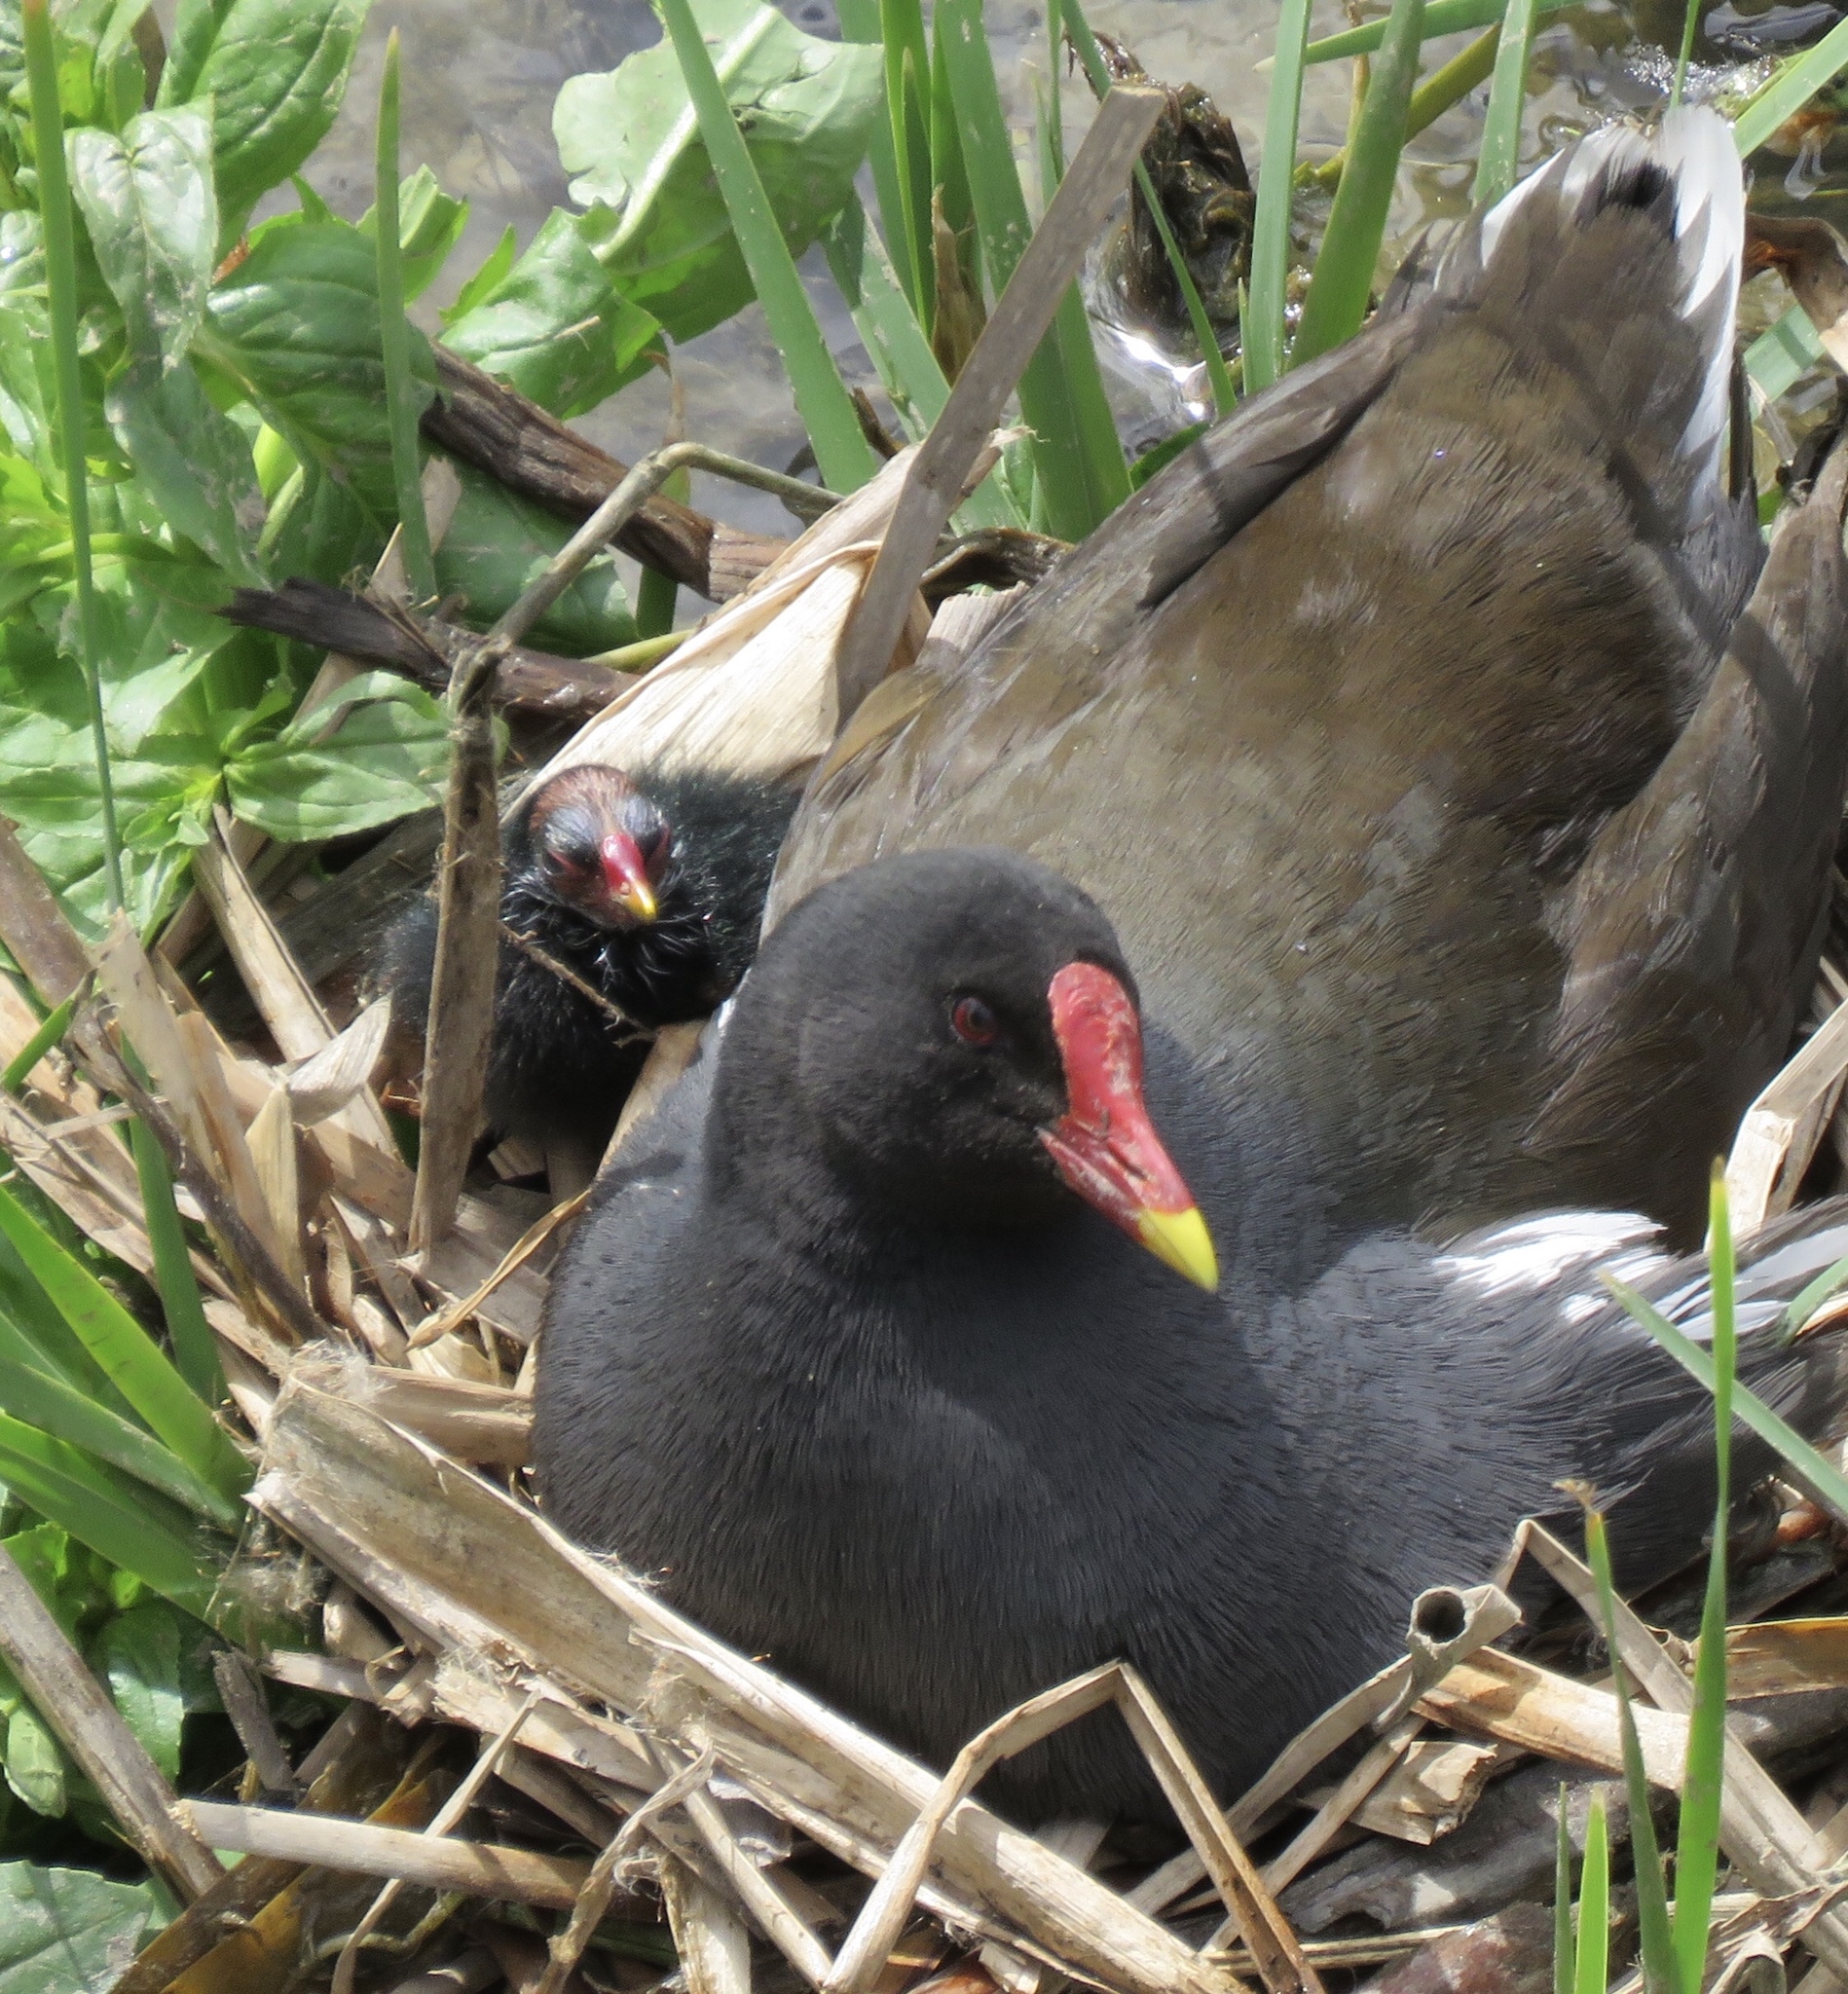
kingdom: Animalia
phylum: Chordata
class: Aves
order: Gruiformes
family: Rallidae
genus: Gallinula
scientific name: Gallinula chloropus
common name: Common moorhen
